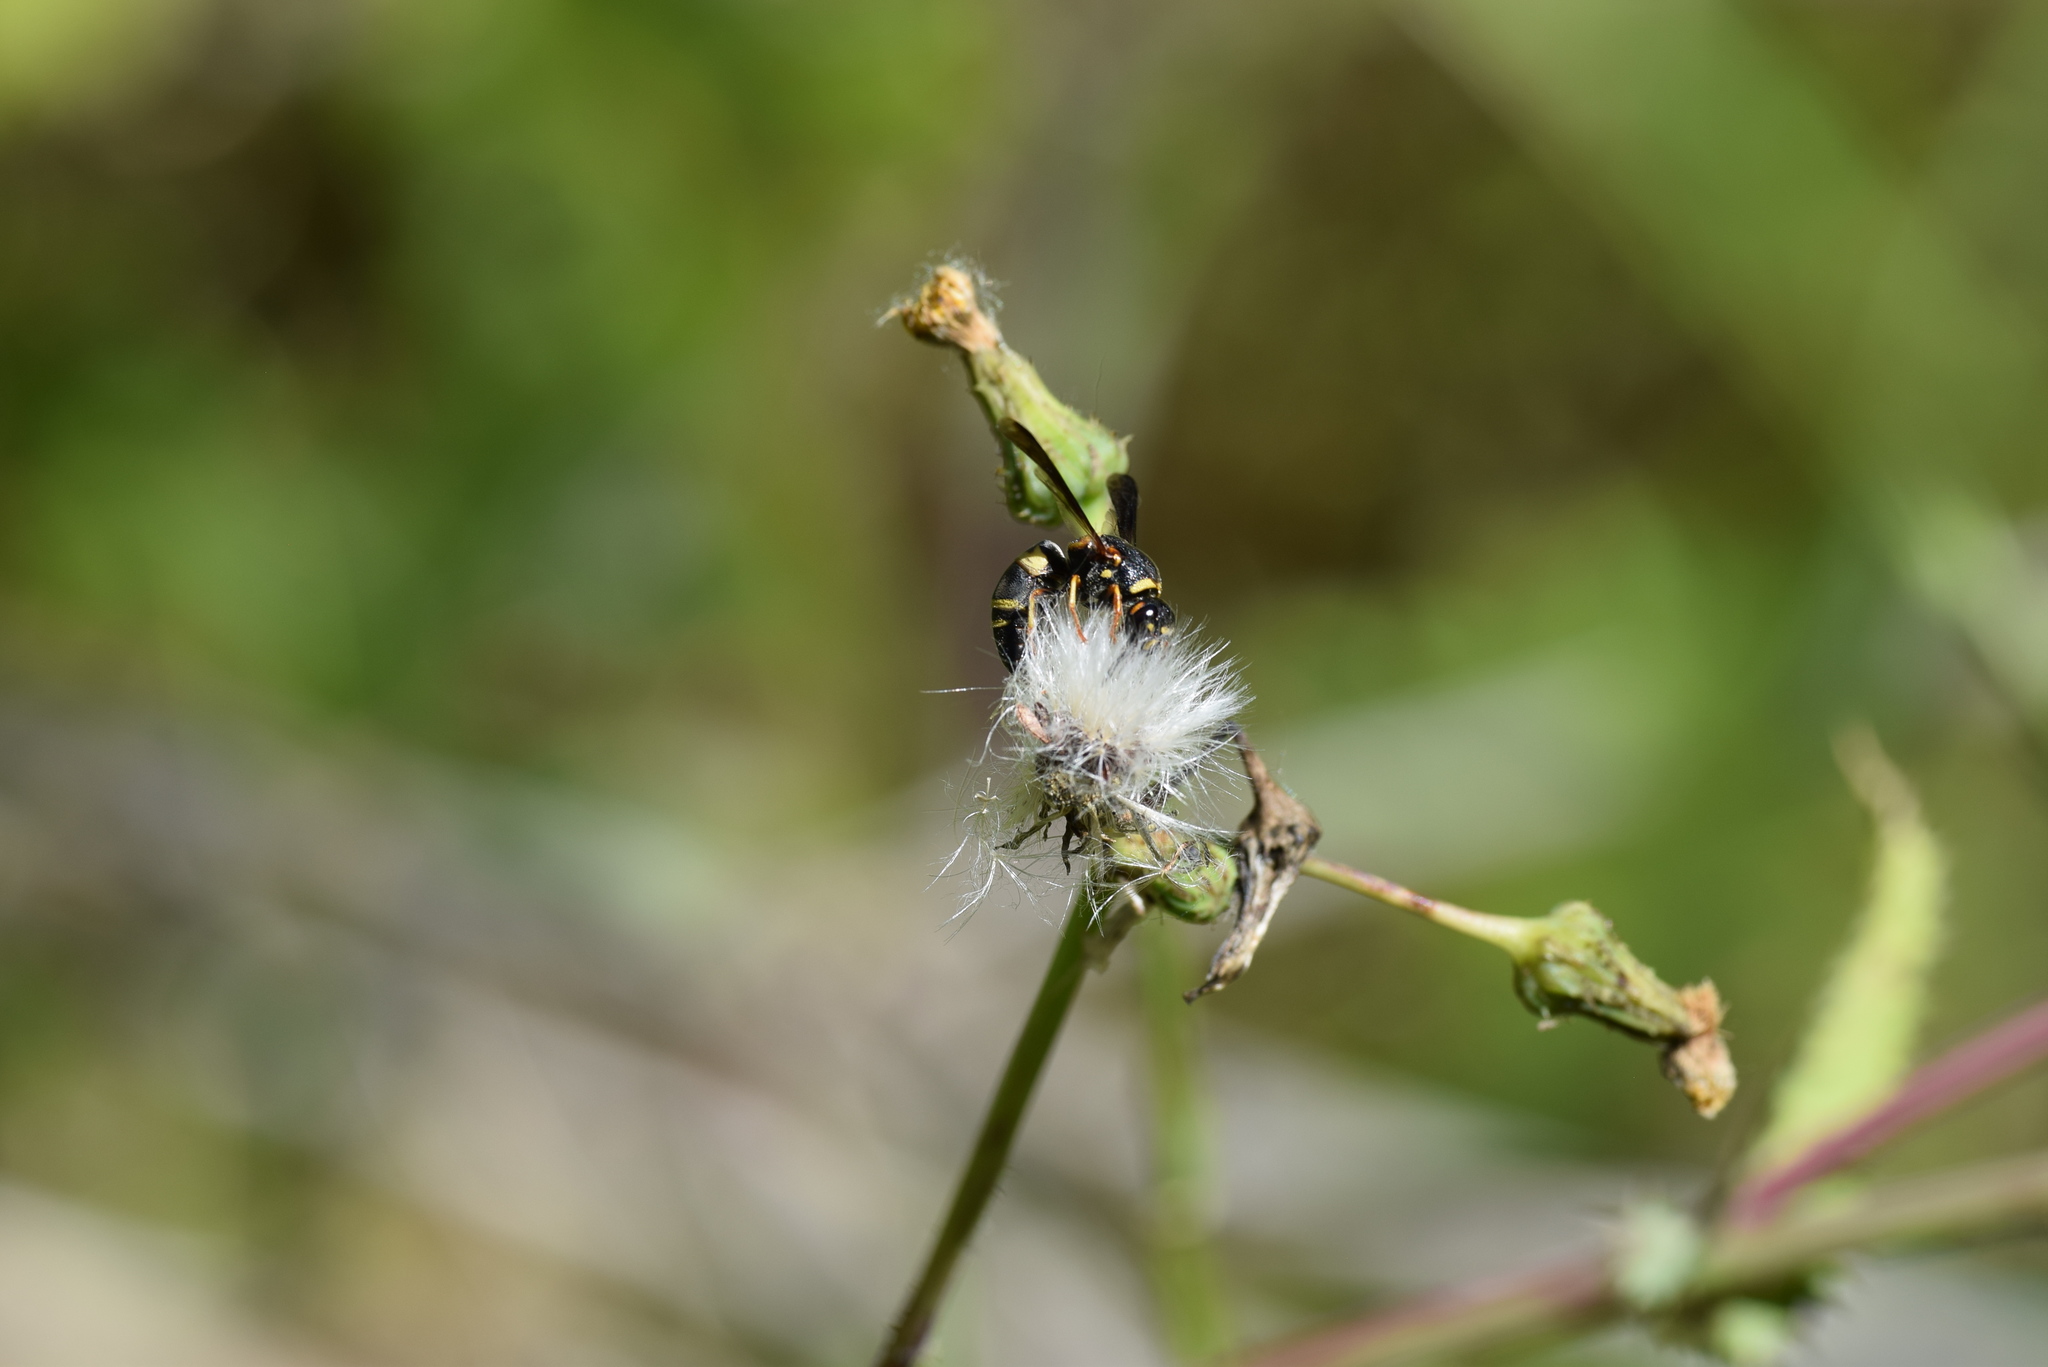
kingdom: Animalia
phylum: Arthropoda
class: Insecta
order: Hymenoptera
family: Eumenidae
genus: Euodynerus
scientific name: Euodynerus
